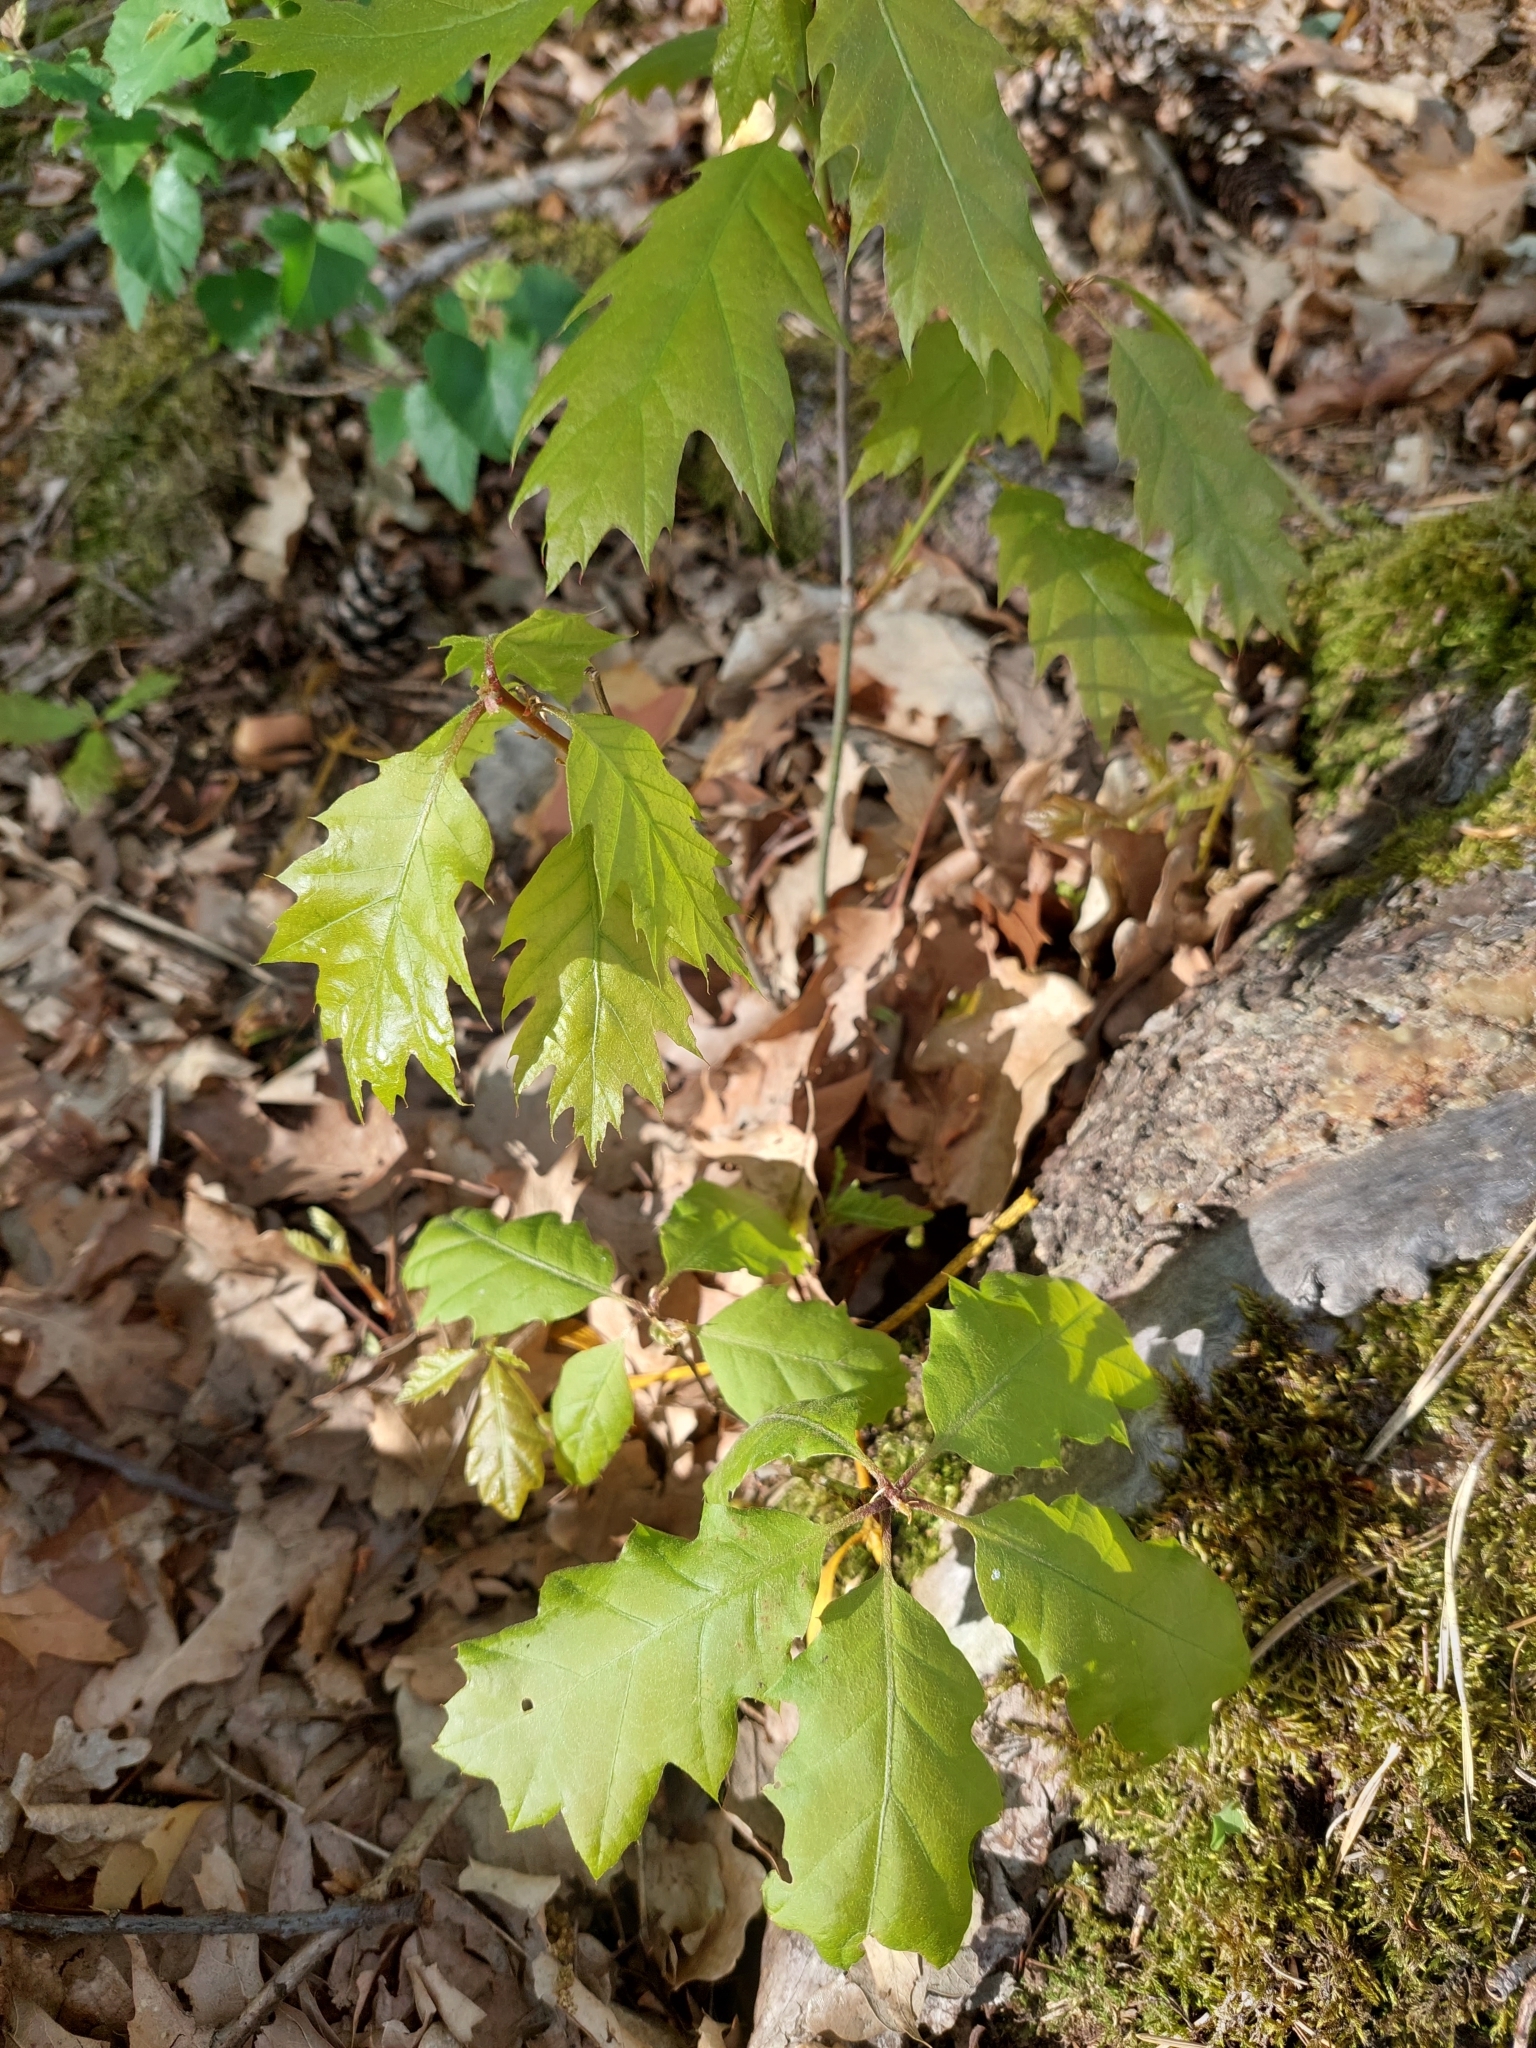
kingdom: Plantae
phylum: Tracheophyta
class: Magnoliopsida
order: Fagales
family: Fagaceae
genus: Quercus
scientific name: Quercus rubra
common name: Red oak
